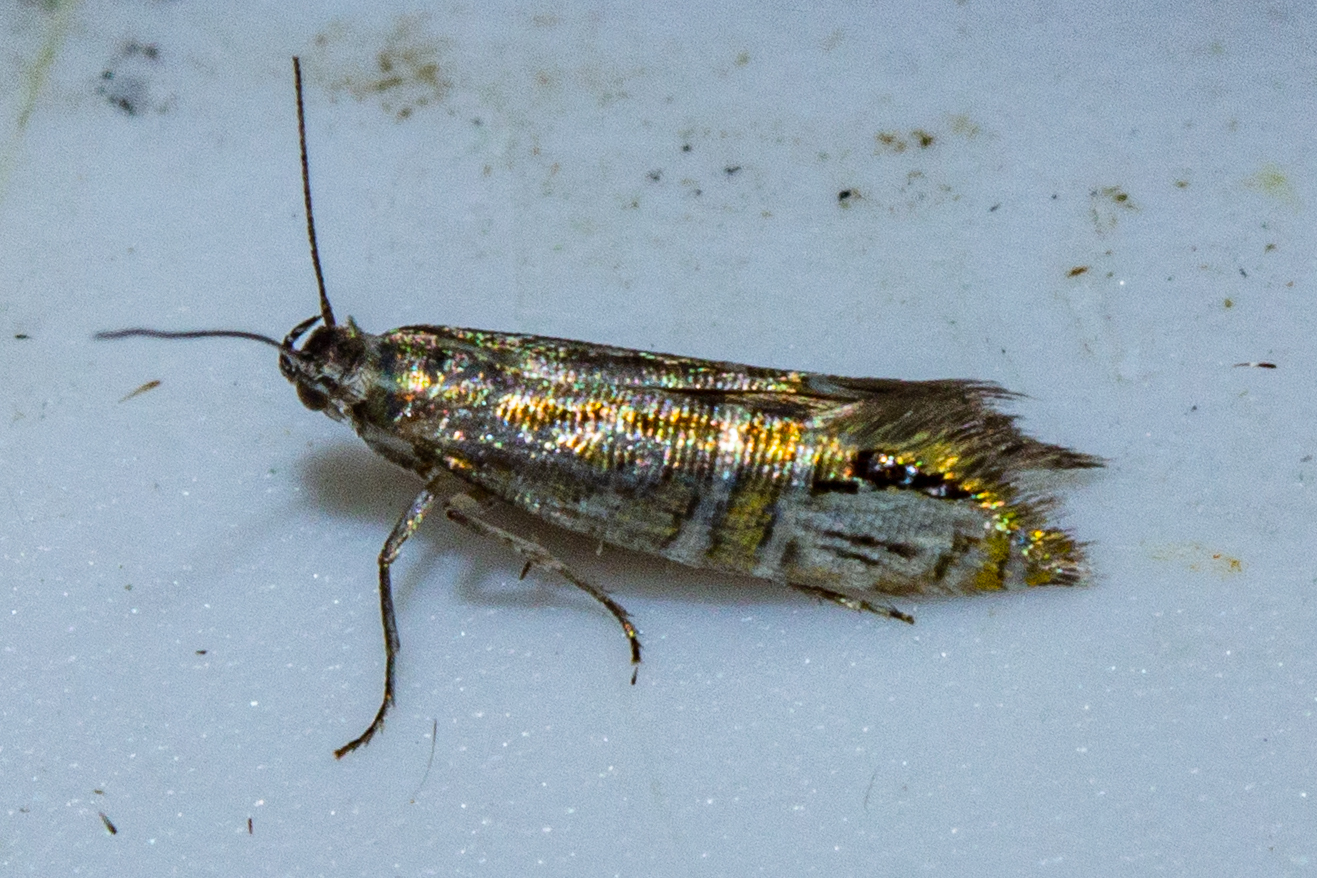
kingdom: Animalia
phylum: Arthropoda
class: Insecta
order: Lepidoptera
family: Glyphipterigidae
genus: Glyphipterix
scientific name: Glyphipterix triselena
